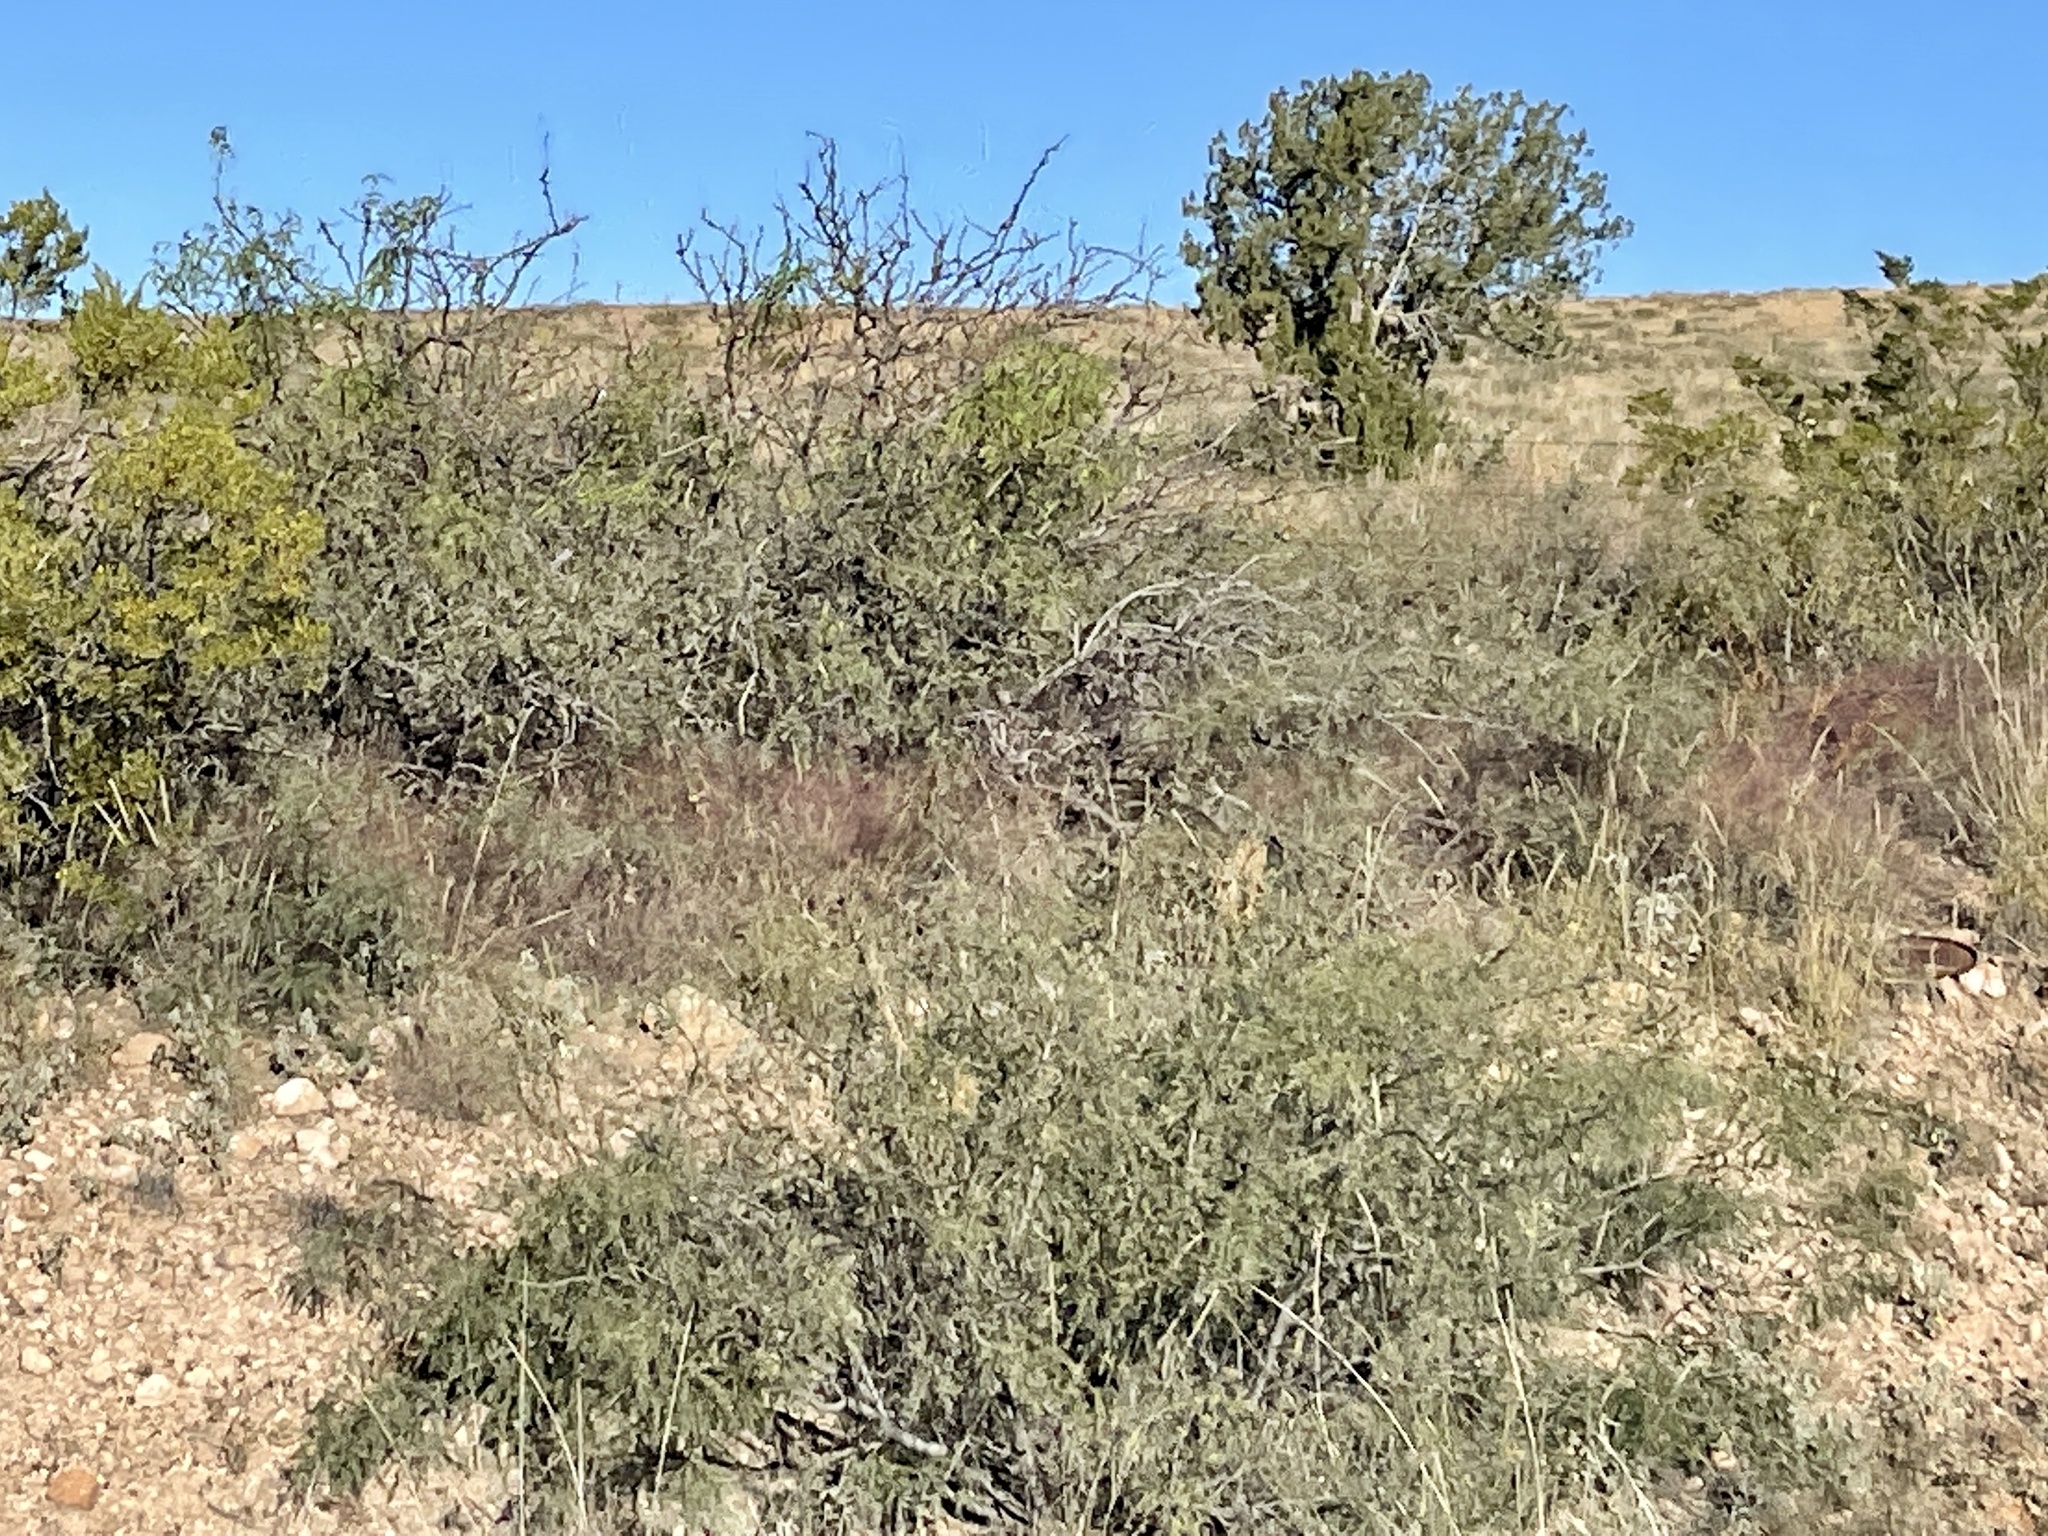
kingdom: Plantae
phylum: Tracheophyta
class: Magnoliopsida
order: Fabales
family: Fabaceae
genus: Prosopis
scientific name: Prosopis glandulosa
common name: Honey mesquite
